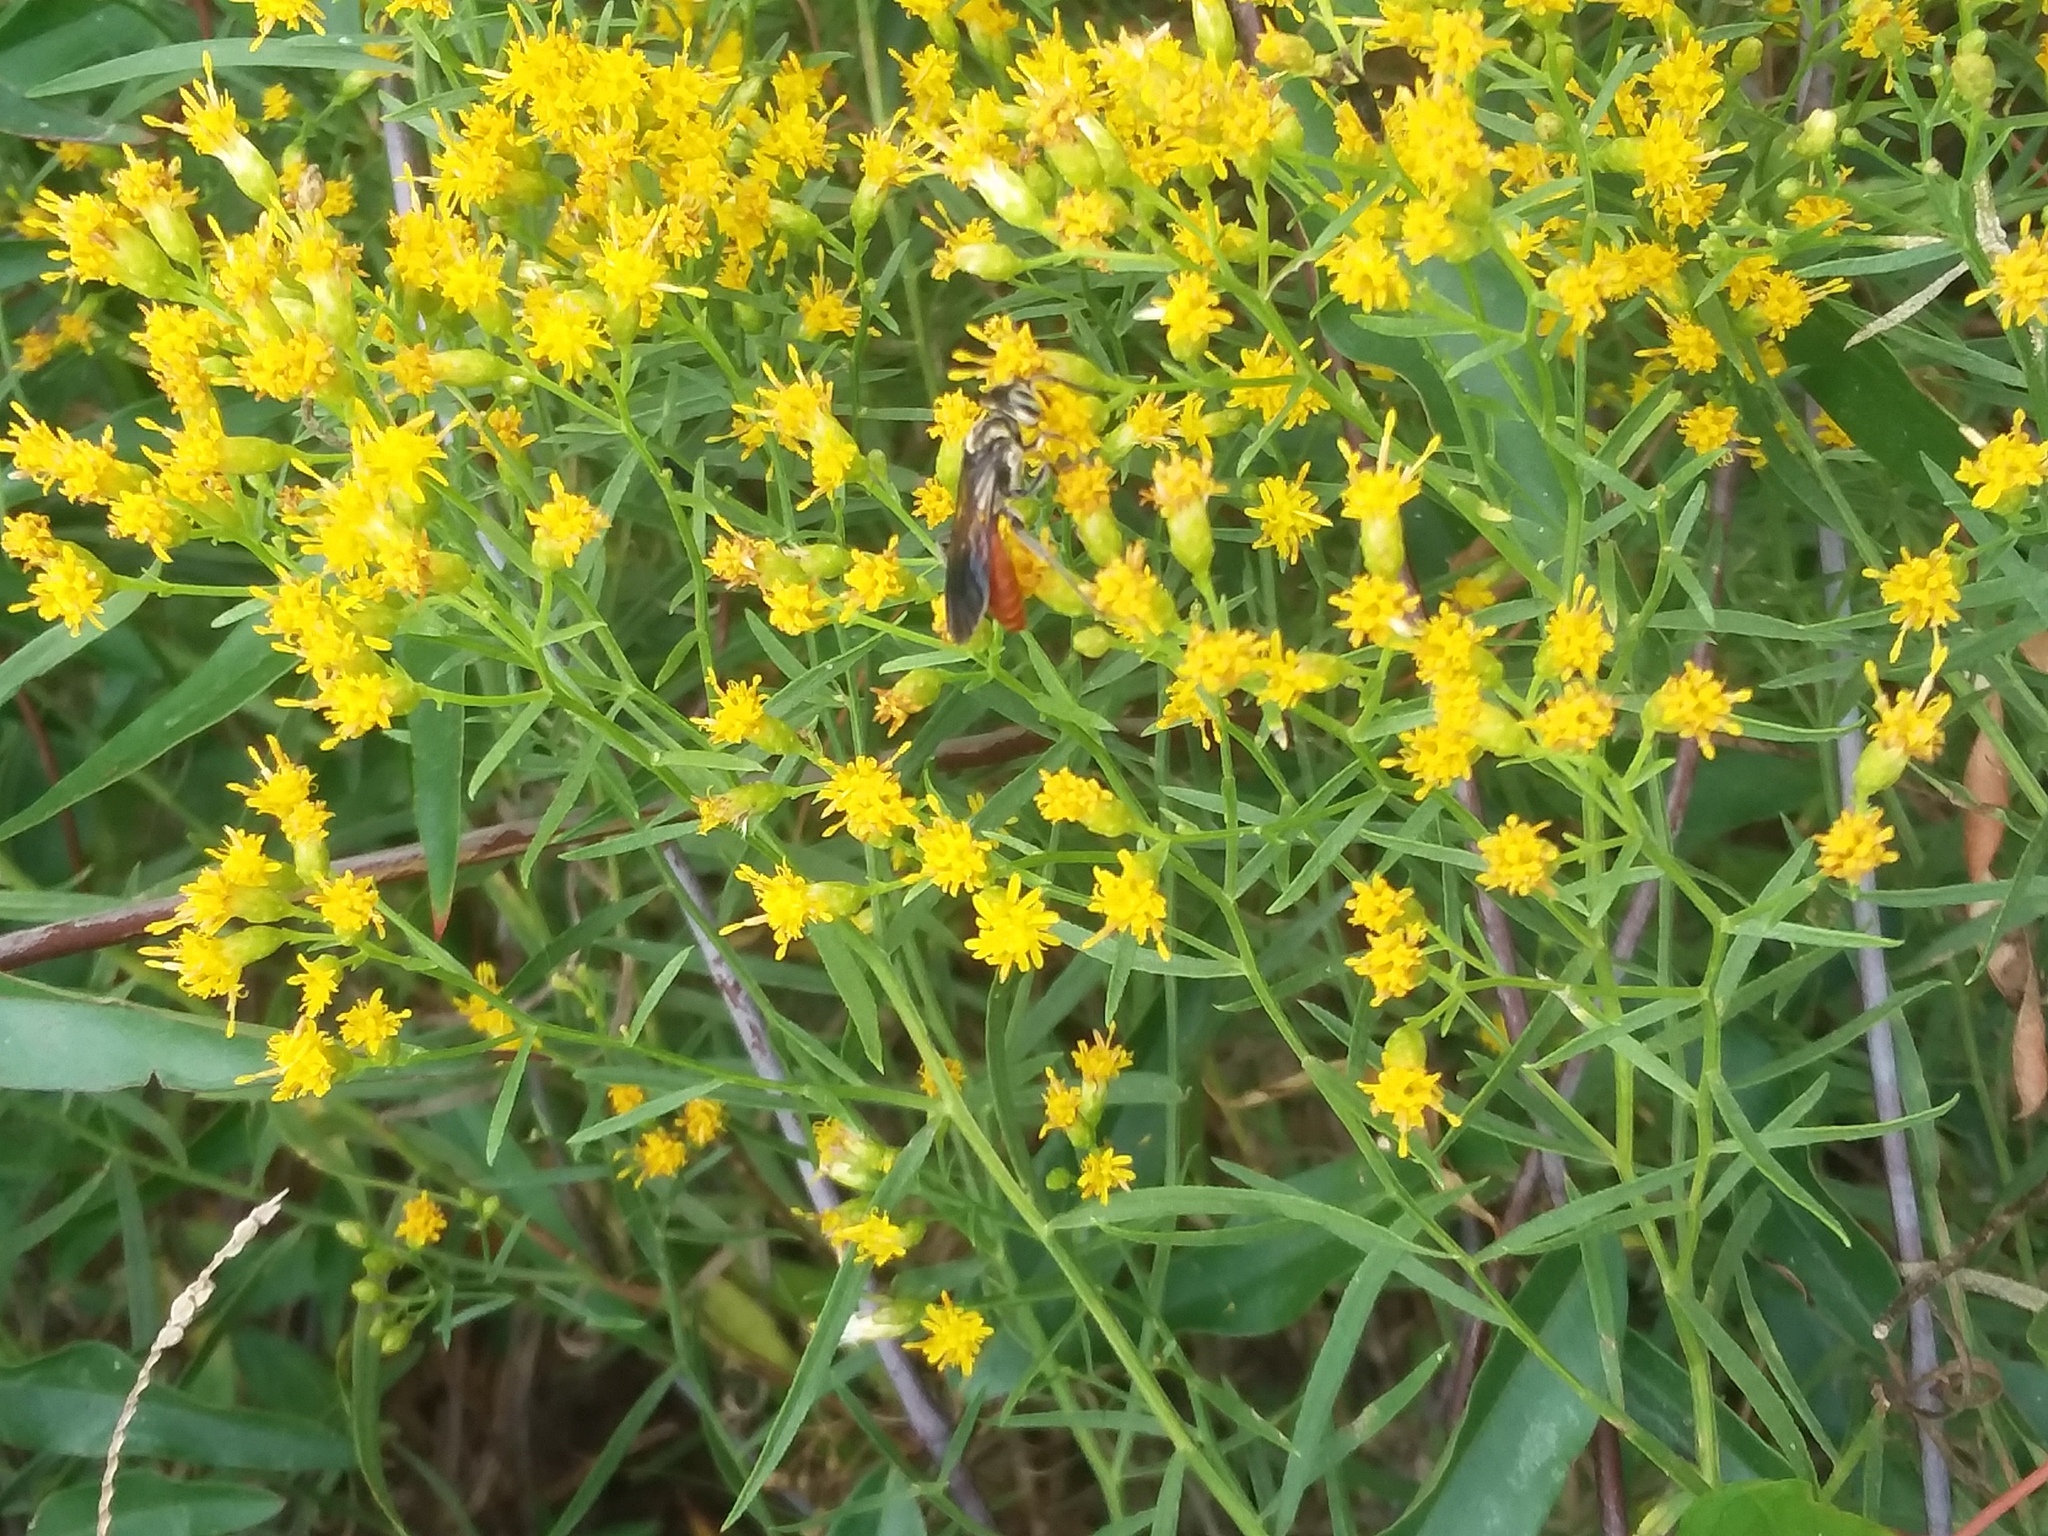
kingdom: Animalia
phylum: Arthropoda
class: Insecta
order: Hymenoptera
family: Crabronidae
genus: Larra
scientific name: Larra bicolor
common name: Wasp
